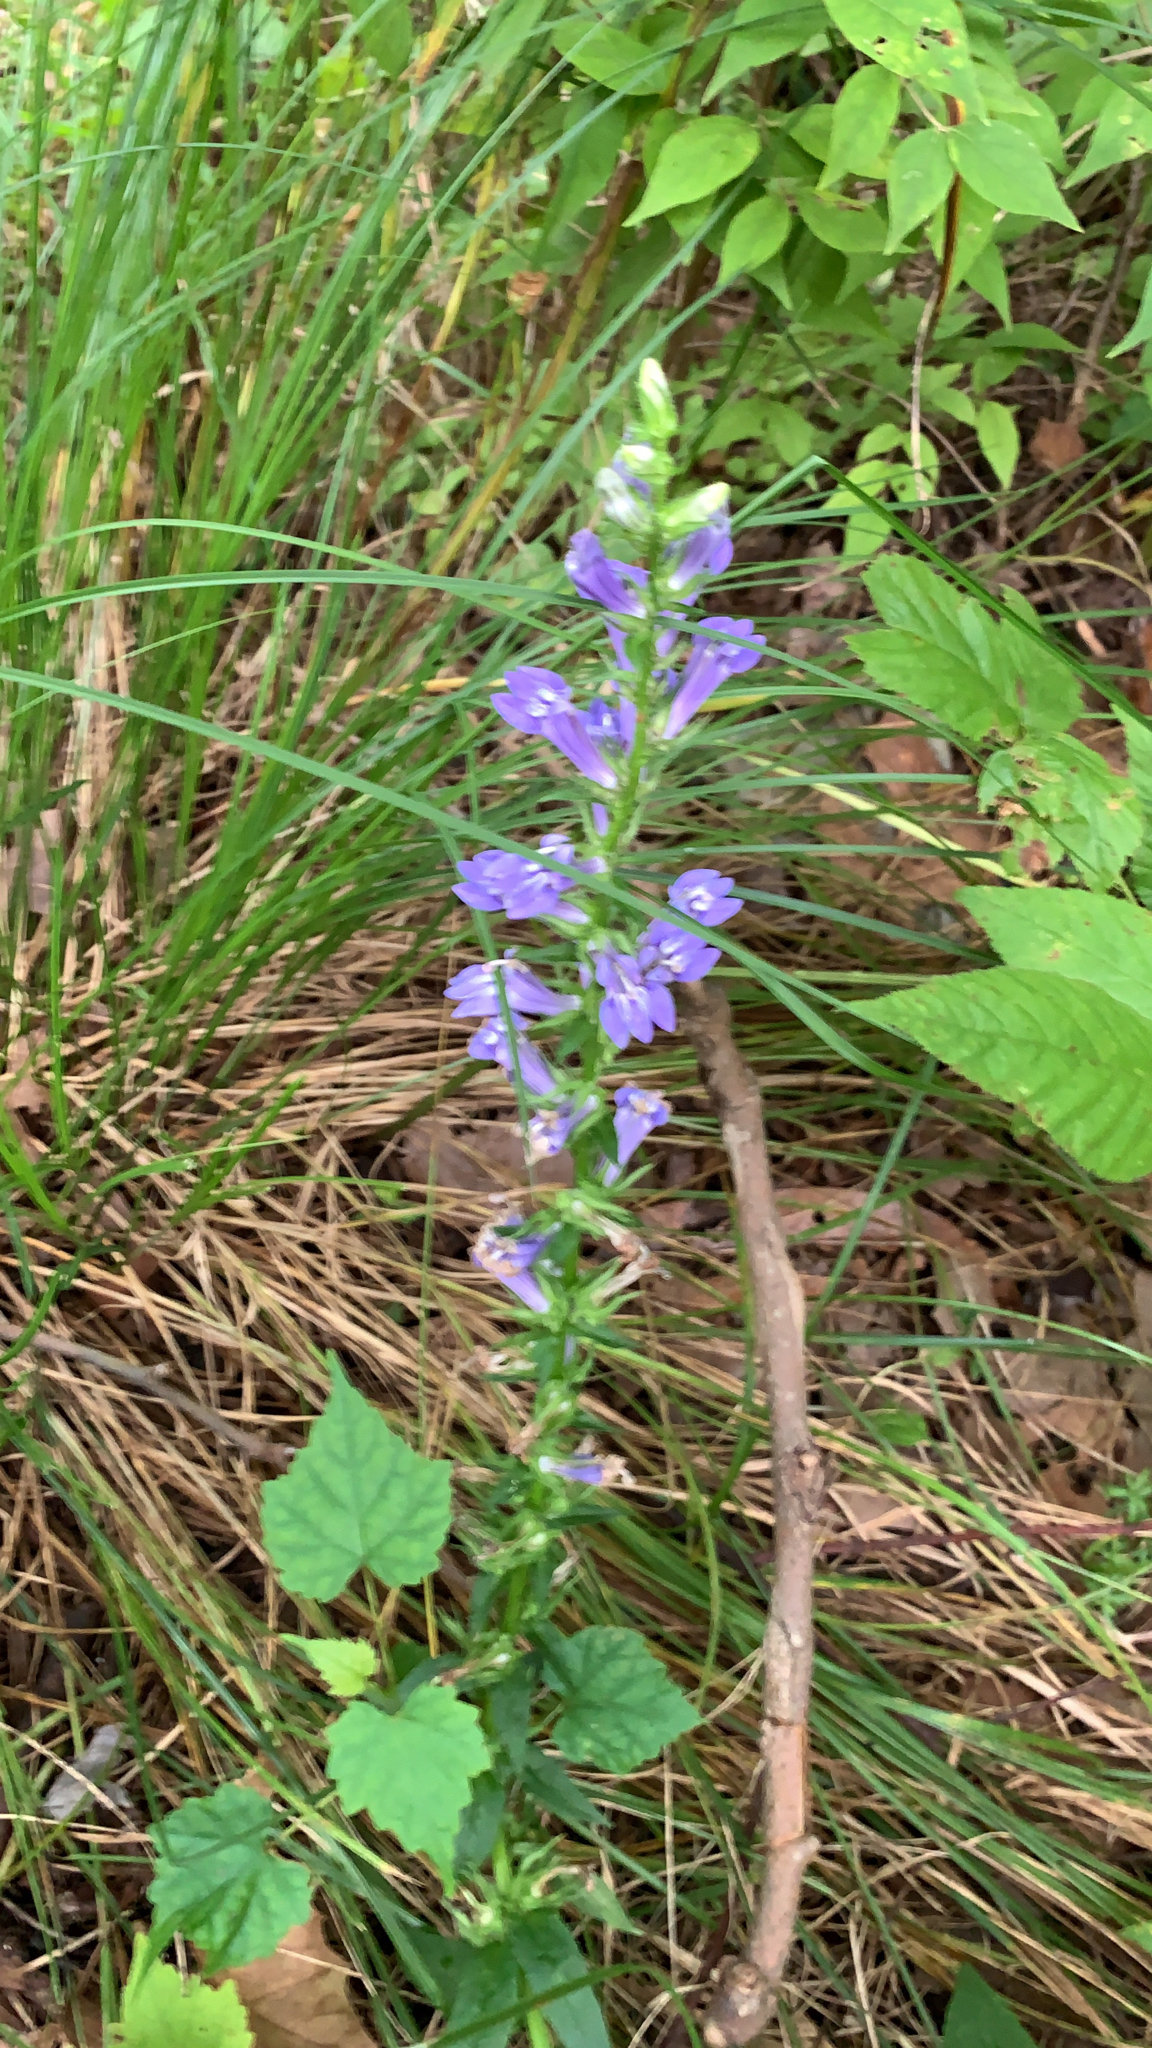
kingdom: Plantae
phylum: Tracheophyta
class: Magnoliopsida
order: Asterales
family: Campanulaceae
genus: Lobelia
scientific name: Lobelia siphilitica
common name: Great lobelia
